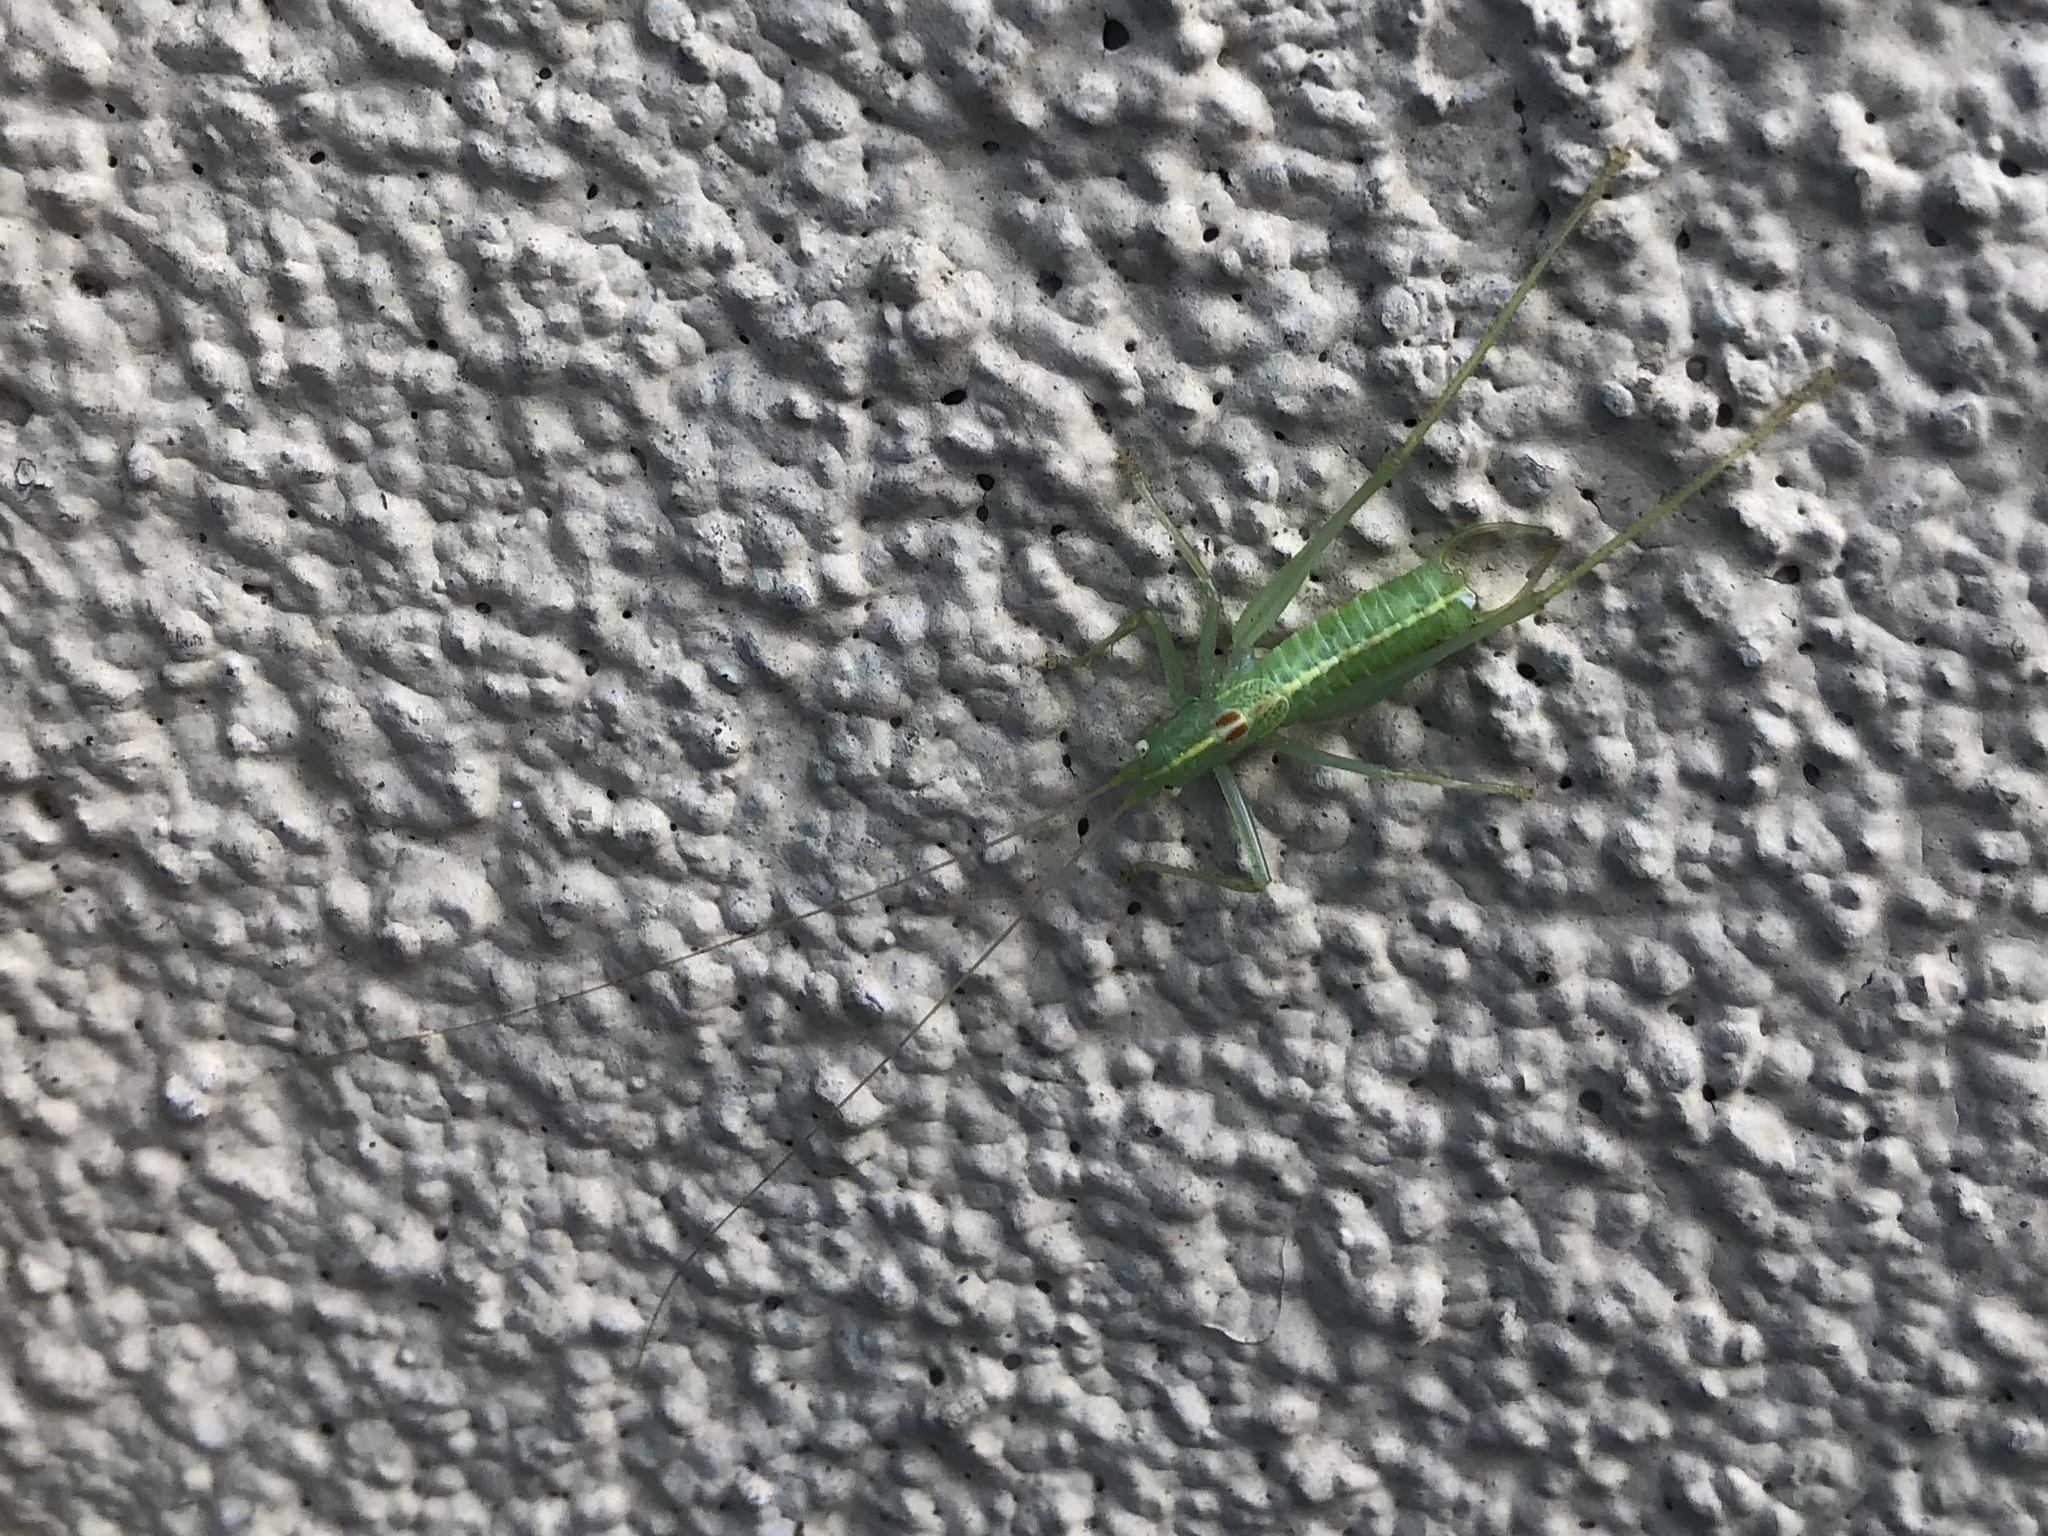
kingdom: Animalia
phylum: Arthropoda
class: Insecta
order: Orthoptera
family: Tettigoniidae
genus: Meconema
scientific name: Meconema meridionale
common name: Southern oak bush-cricket
